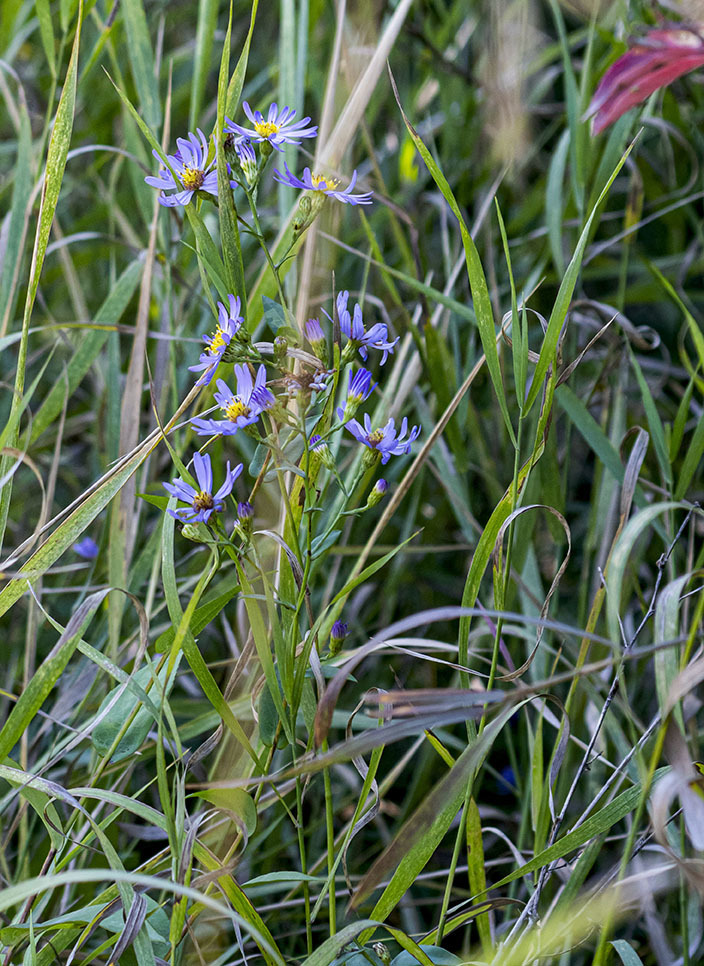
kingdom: Plantae
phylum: Tracheophyta
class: Magnoliopsida
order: Asterales
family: Asteraceae
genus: Symphyotrichum
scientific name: Symphyotrichum laeve
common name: Glaucous aster
